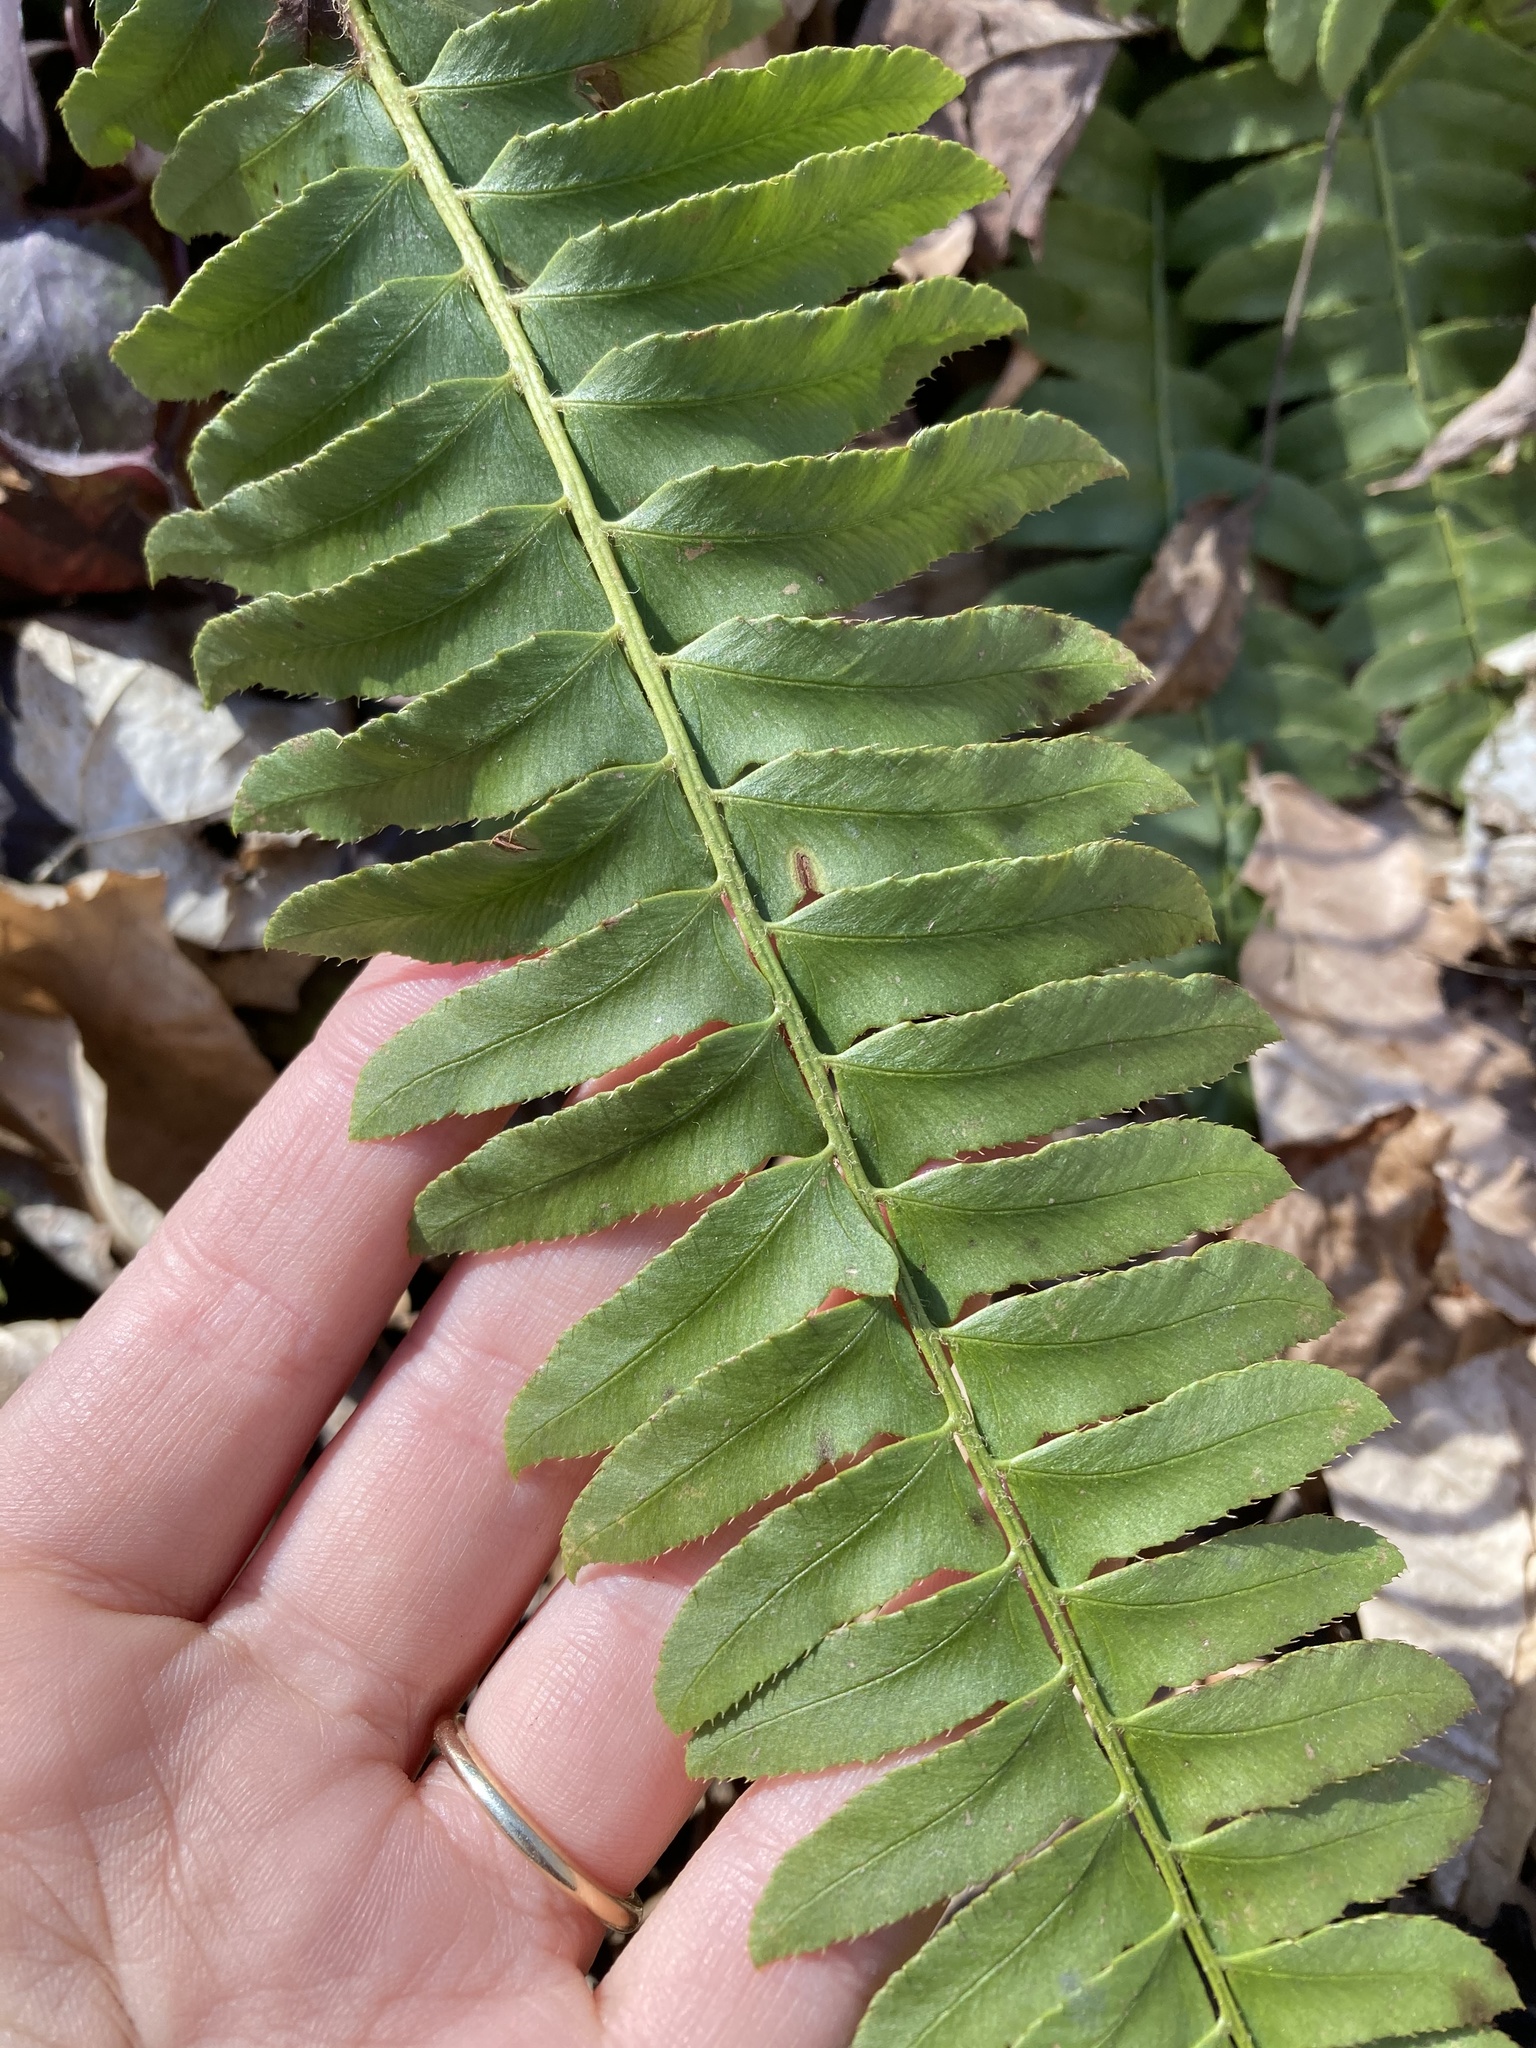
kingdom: Plantae
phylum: Tracheophyta
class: Polypodiopsida
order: Polypodiales
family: Dryopteridaceae
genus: Polystichum
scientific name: Polystichum acrostichoides
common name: Christmas fern
